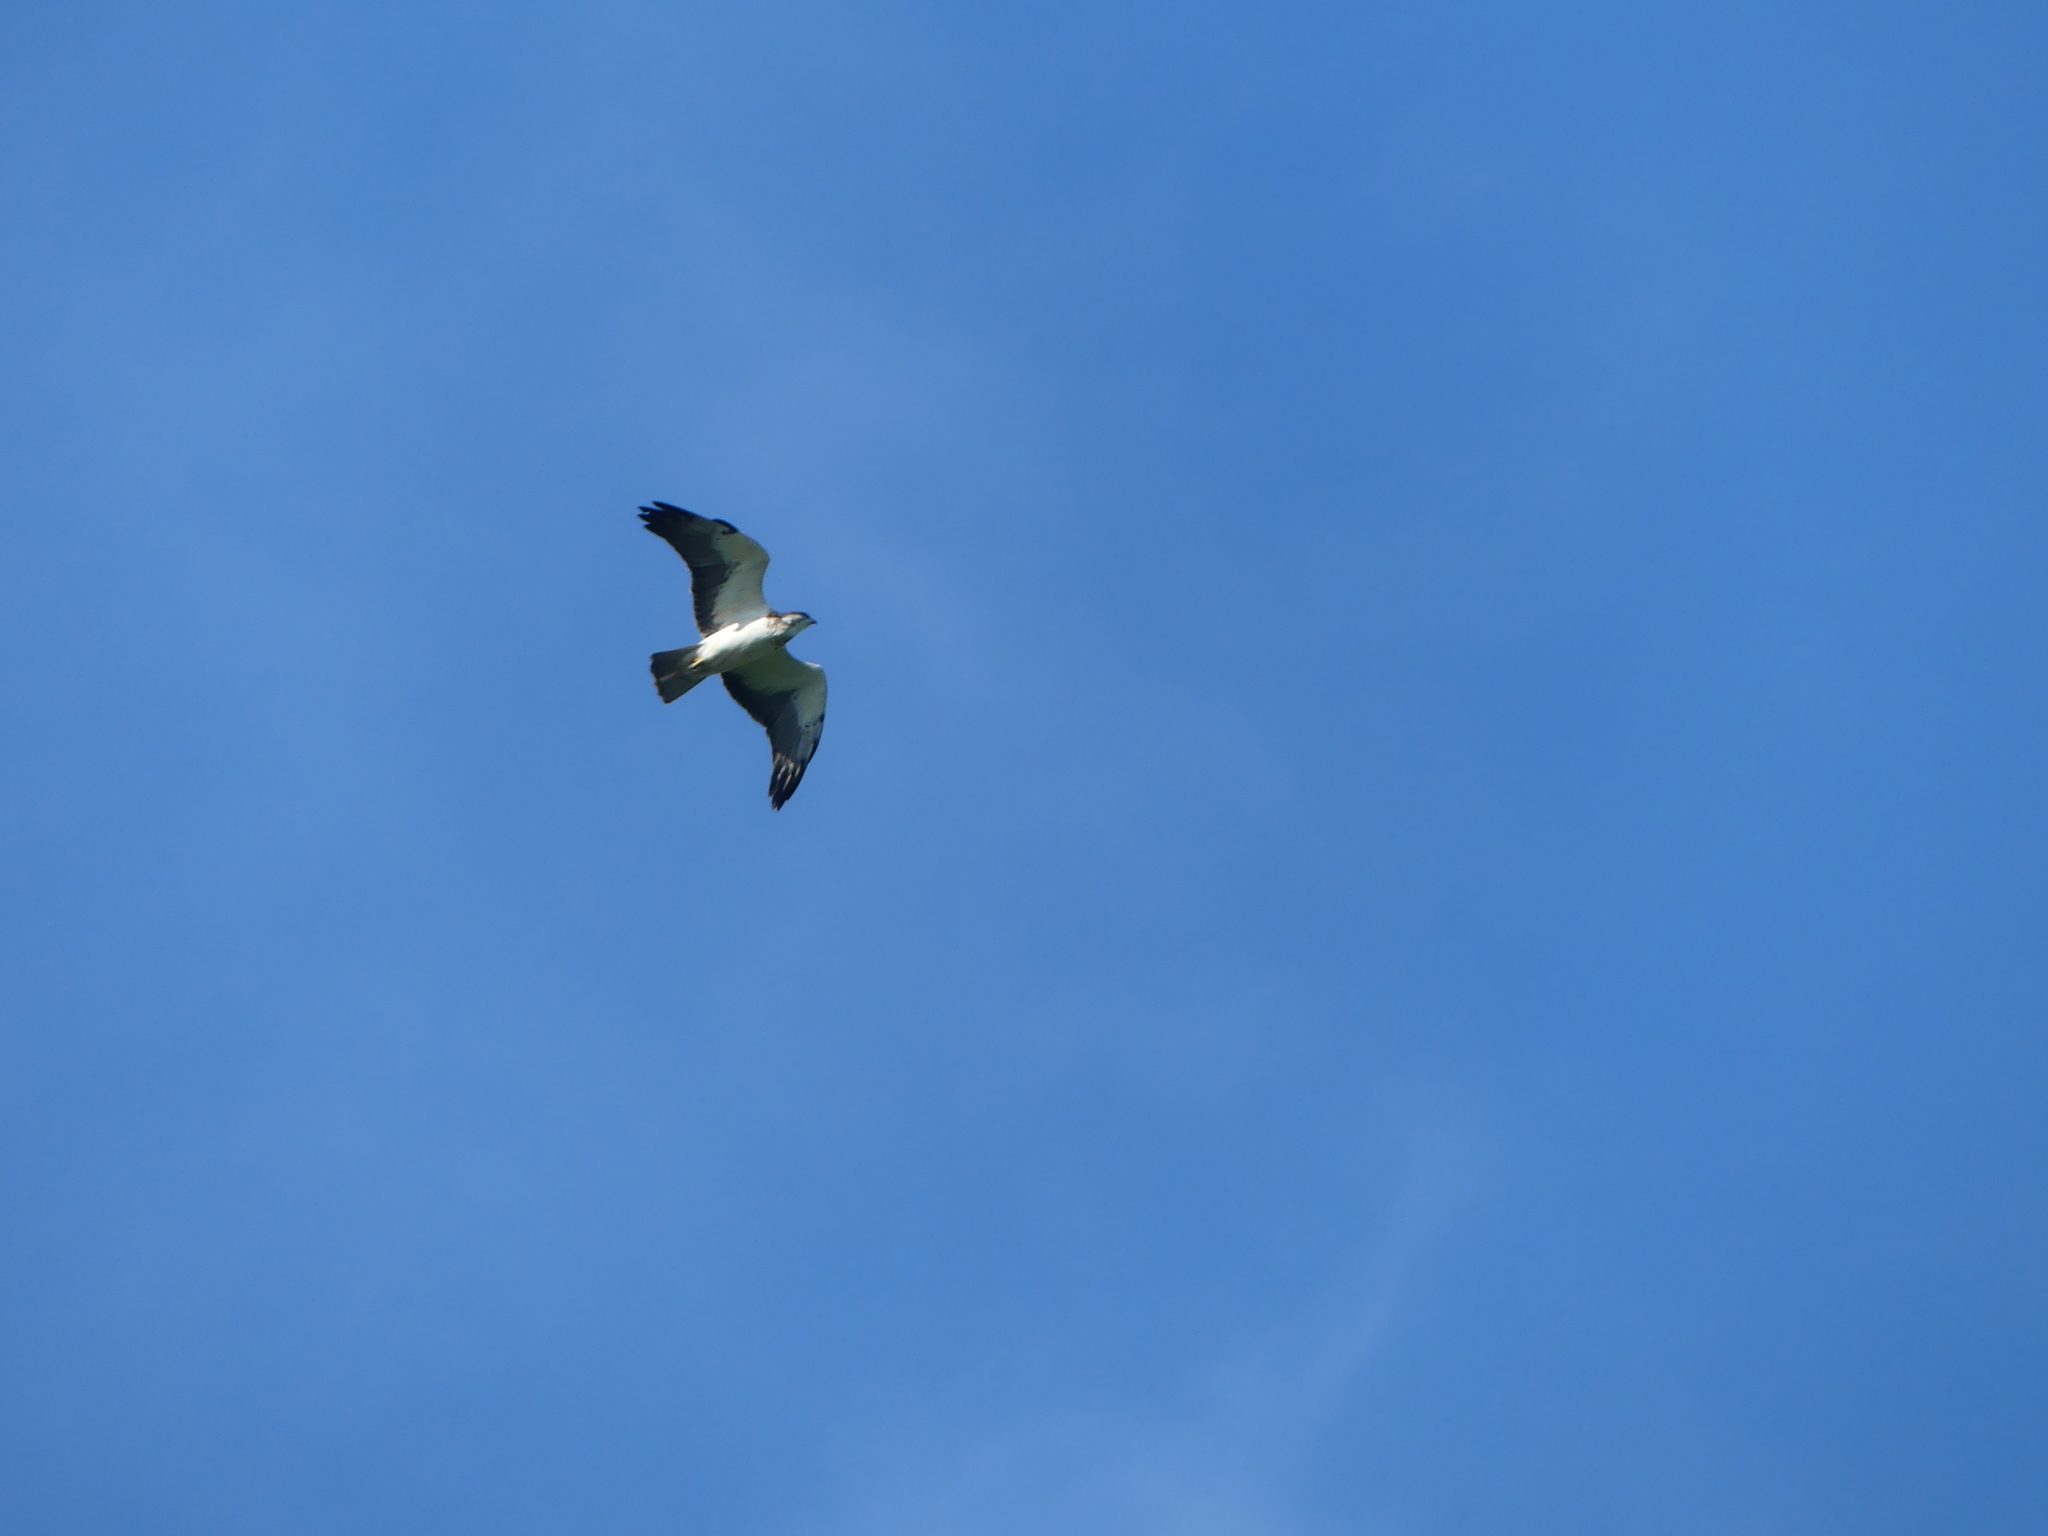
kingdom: Animalia
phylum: Chordata
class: Aves
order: Accipitriformes
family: Accipitridae
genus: Buteo
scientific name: Buteo swainsoni
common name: Swainson's hawk
